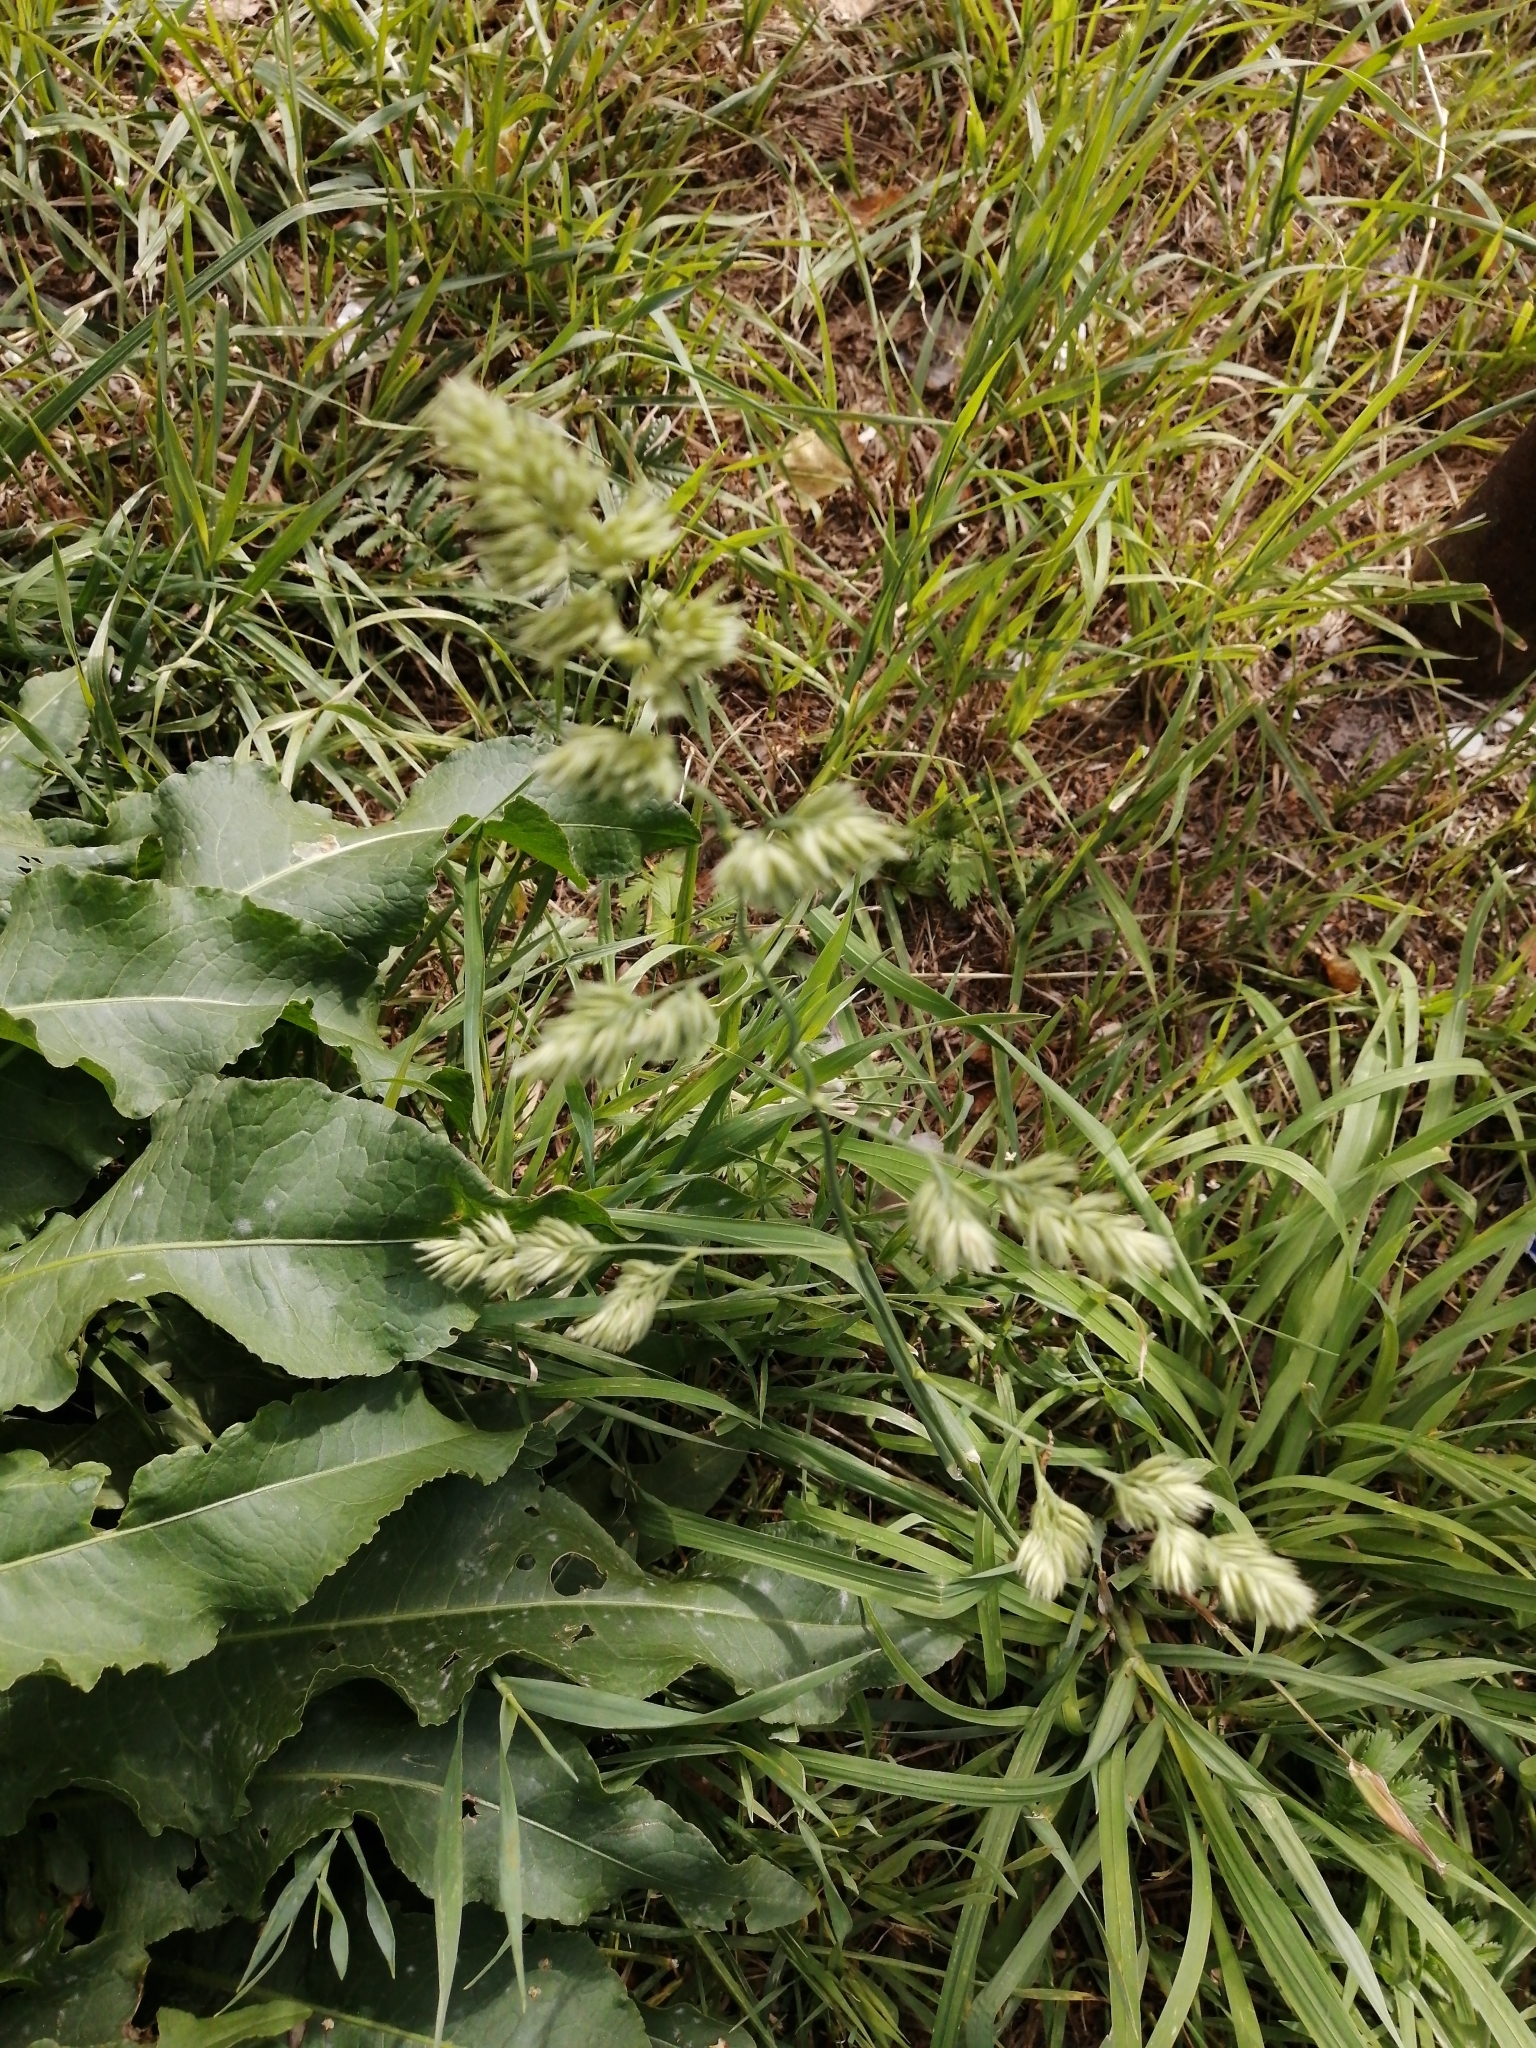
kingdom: Plantae
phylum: Tracheophyta
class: Liliopsida
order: Poales
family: Poaceae
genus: Dactylis
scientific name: Dactylis glomerata
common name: Orchardgrass
